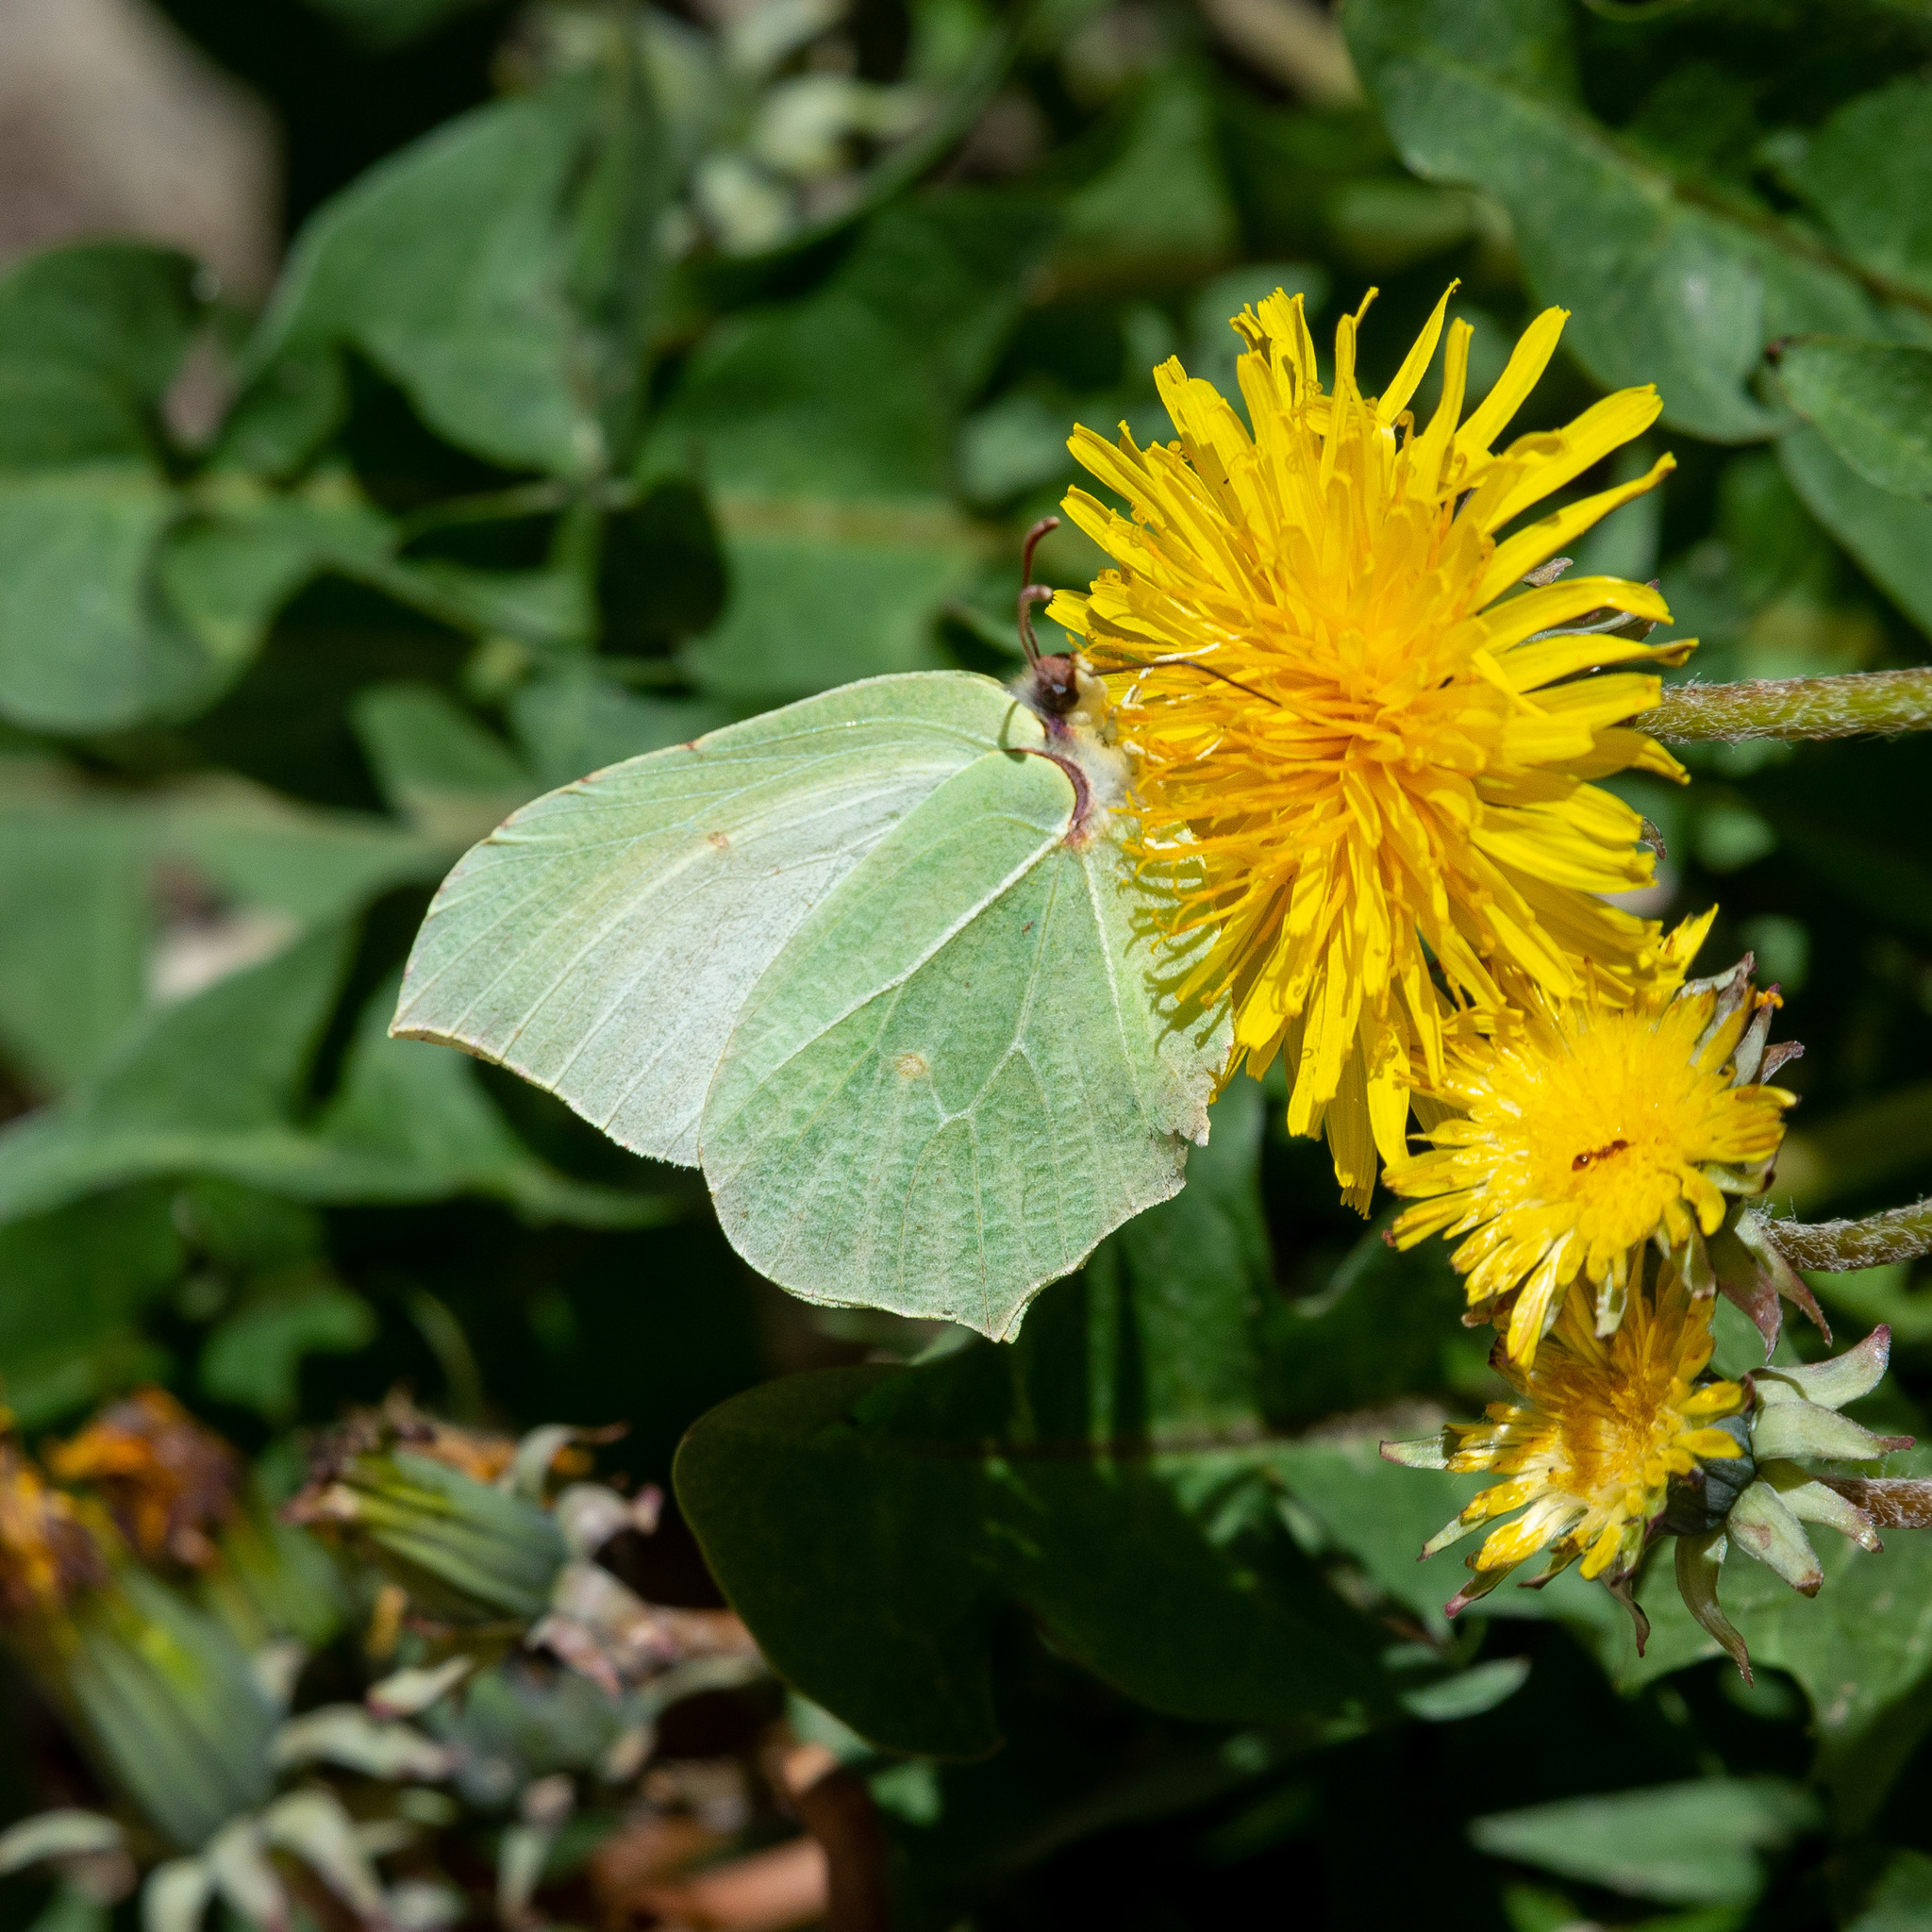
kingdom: Animalia
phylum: Arthropoda
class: Insecta
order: Lepidoptera
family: Pieridae
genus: Gonepteryx
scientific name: Gonepteryx rhamni
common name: Brimstone
